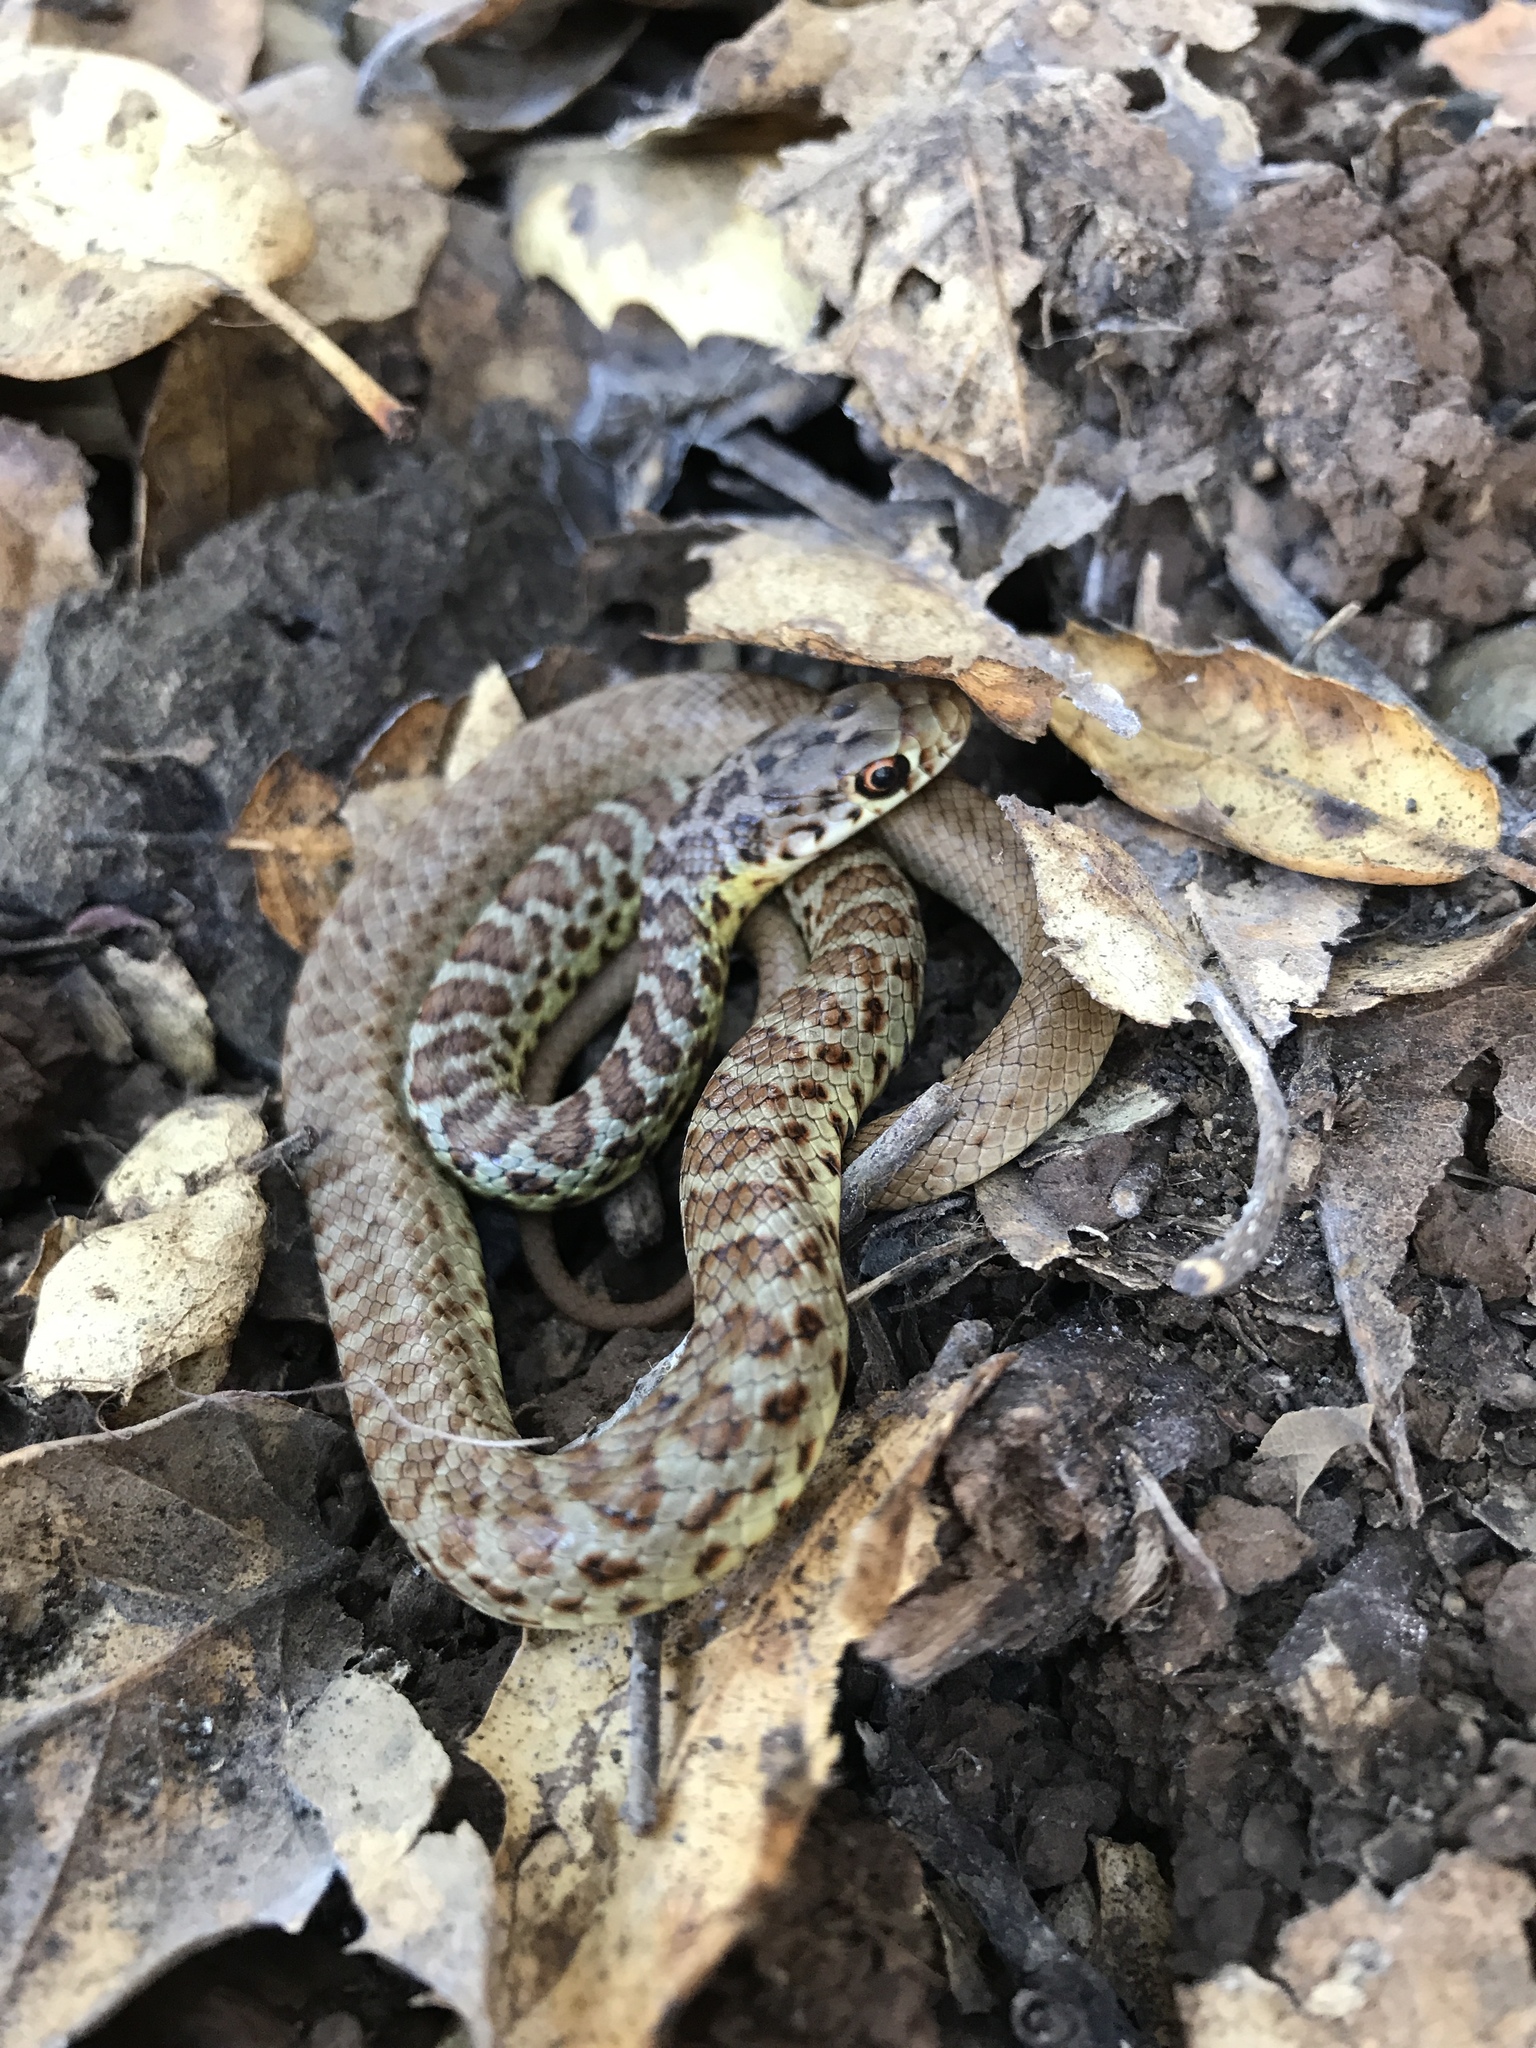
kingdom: Animalia
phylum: Chordata
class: Squamata
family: Colubridae
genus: Coluber
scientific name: Coluber constrictor
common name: Eastern racer
